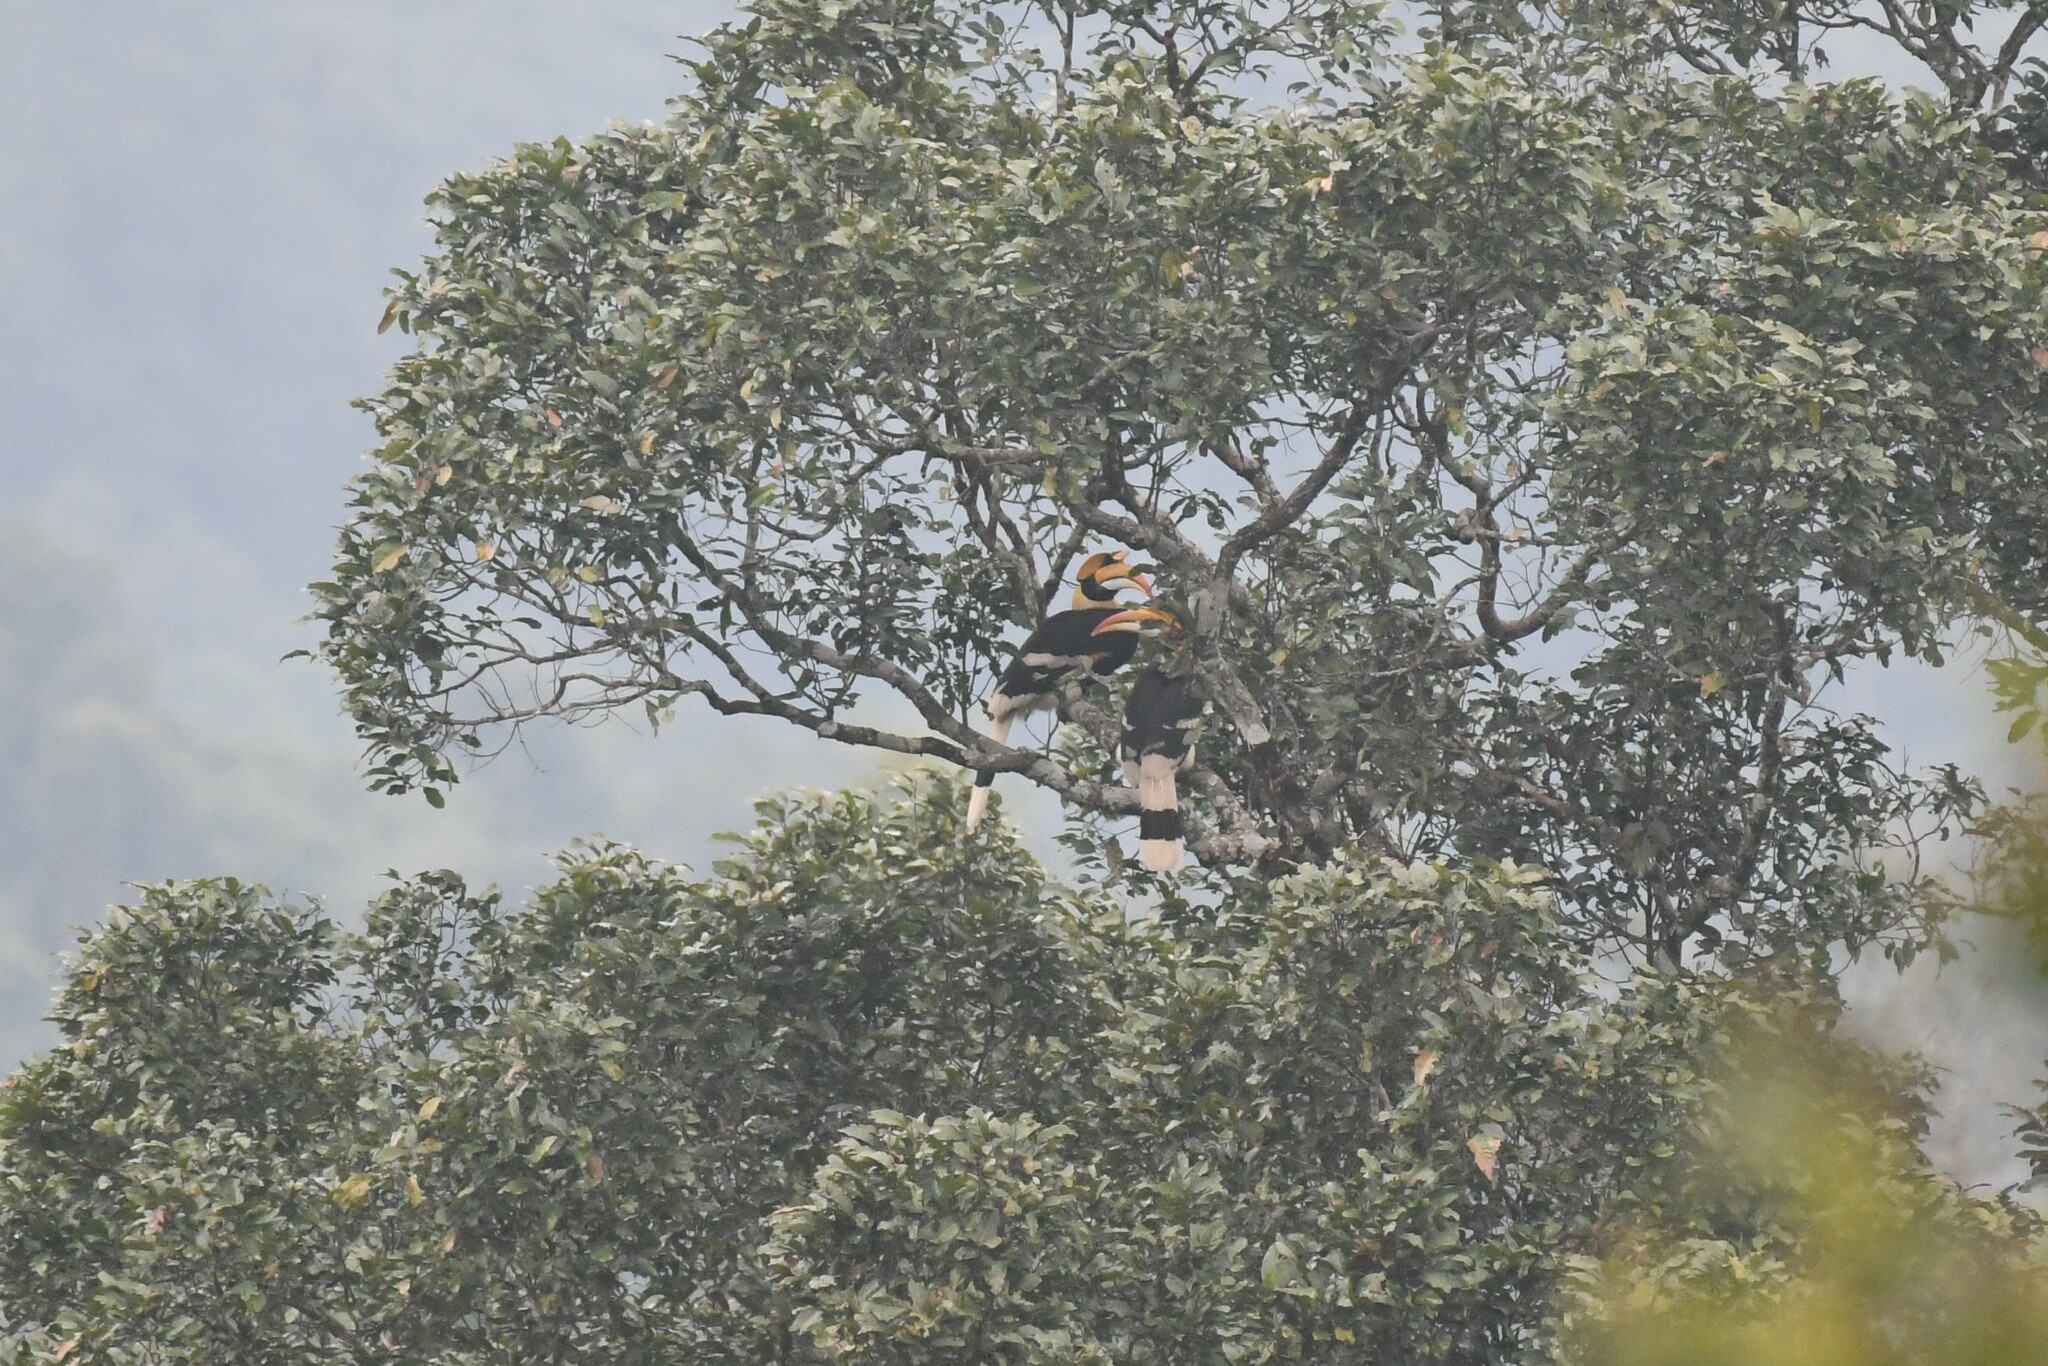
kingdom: Animalia
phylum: Chordata
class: Aves
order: Bucerotiformes
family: Bucerotidae
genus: Buceros
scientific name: Buceros bicornis
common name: Great hornbill
